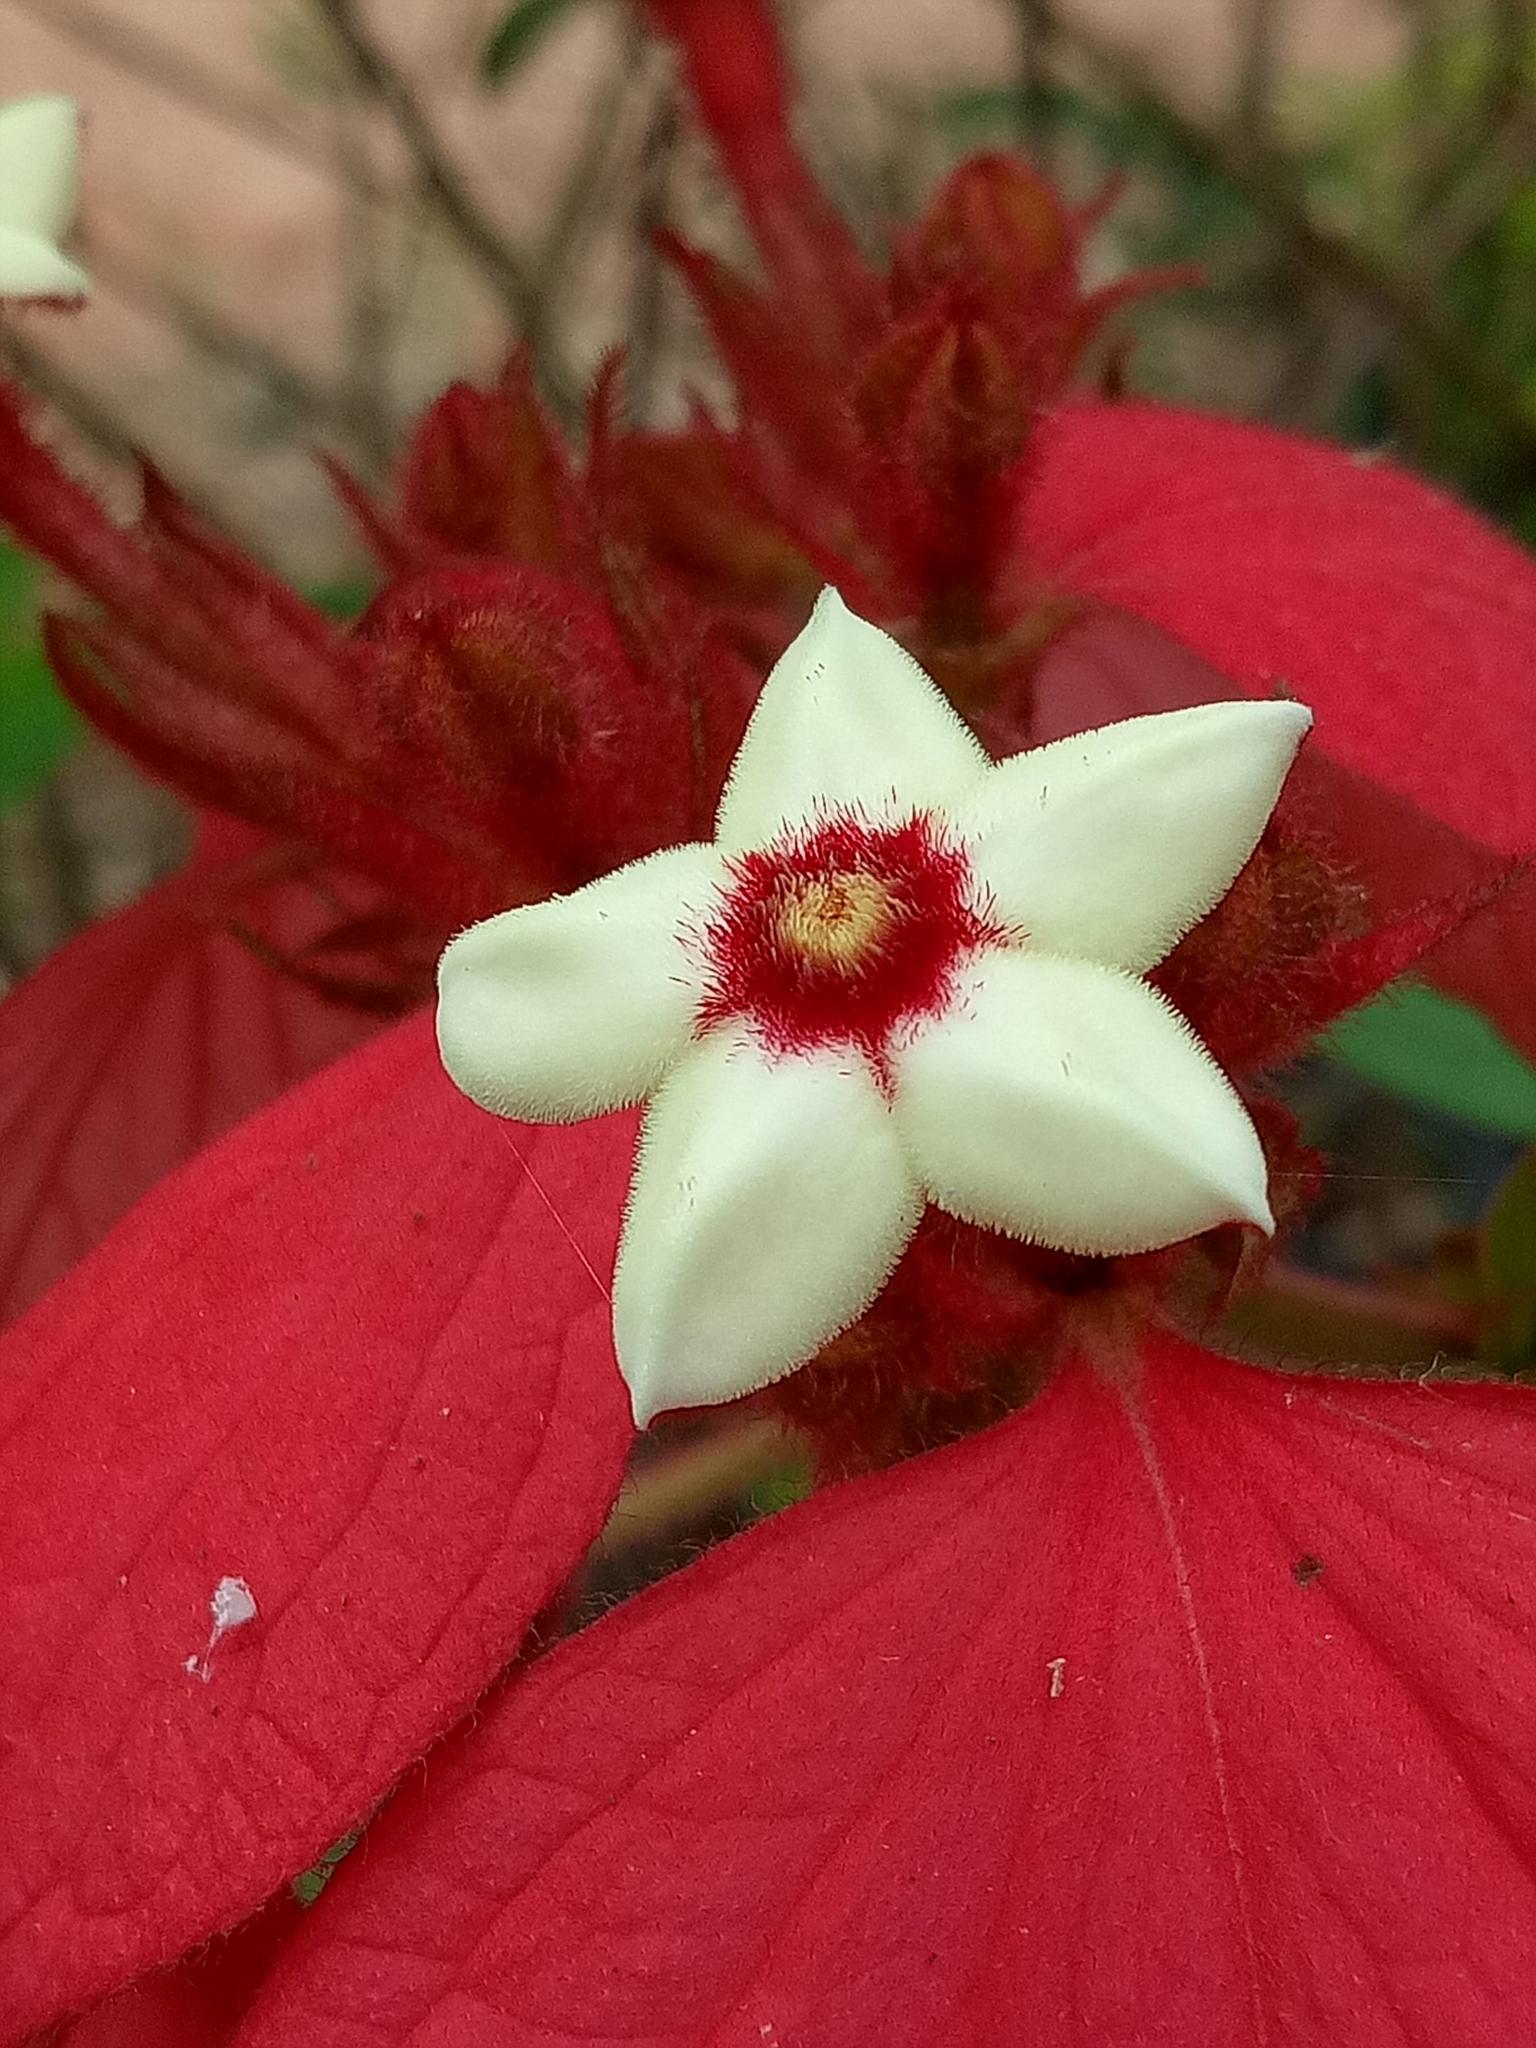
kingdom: Plantae
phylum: Tracheophyta
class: Magnoliopsida
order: Gentianales
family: Rubiaceae
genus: Mussaenda
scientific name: Mussaenda erythrophylla
